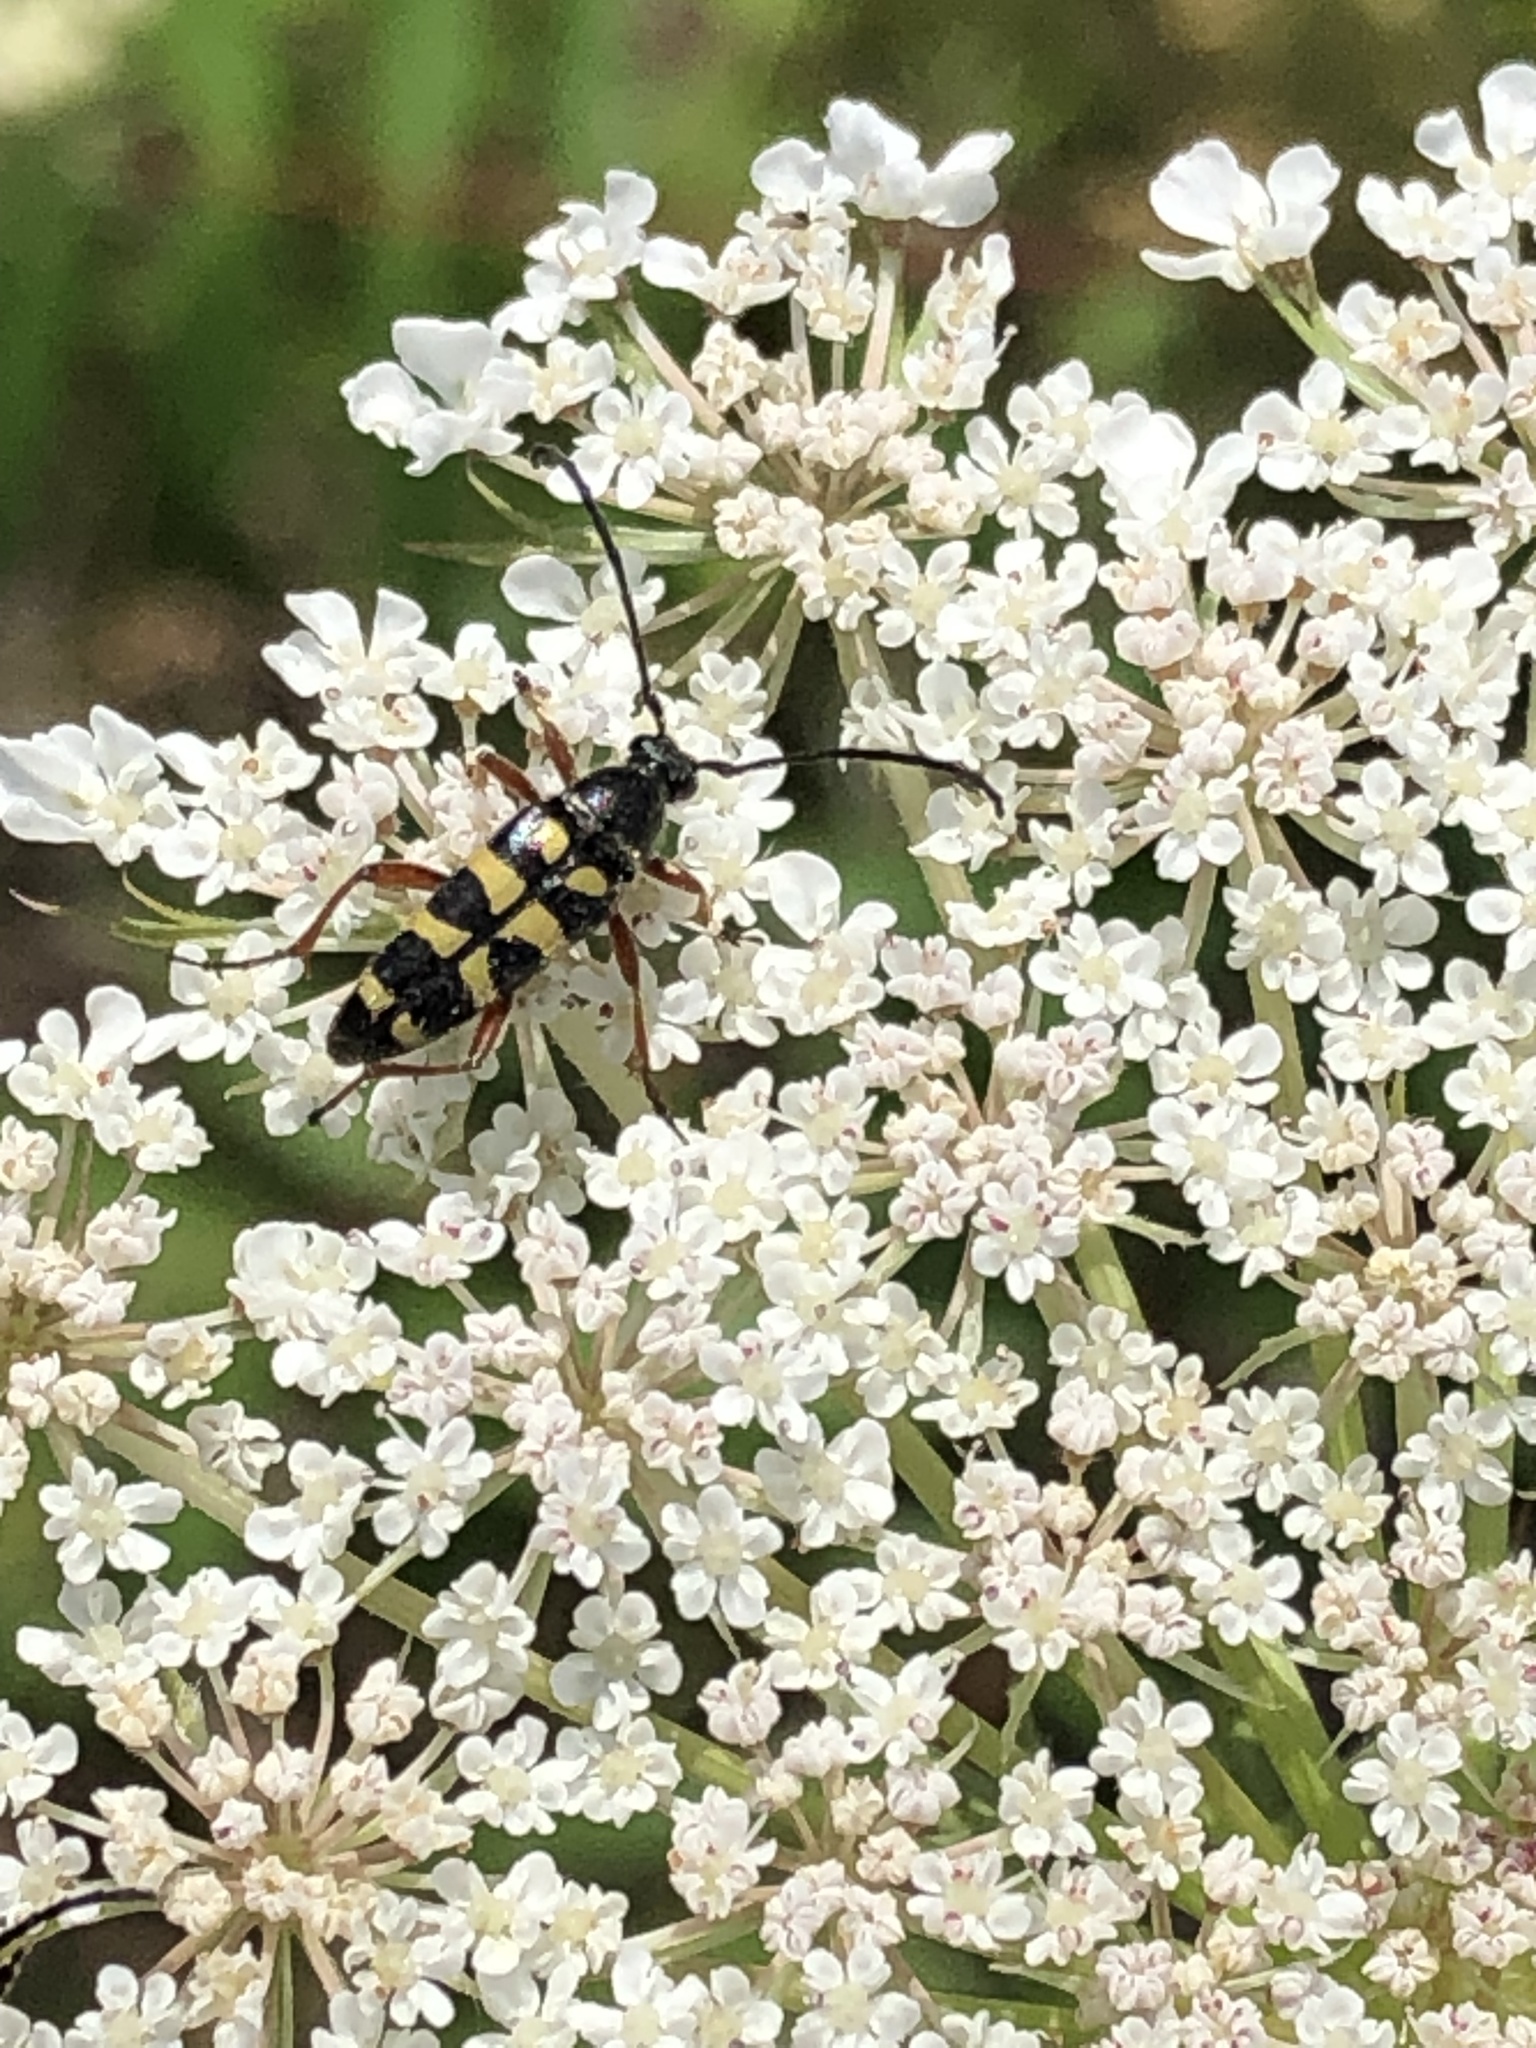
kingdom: Animalia
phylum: Arthropoda
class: Insecta
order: Coleoptera
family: Cerambycidae
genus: Typocerus
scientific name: Typocerus velutinus
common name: Banded longhorn beetle
